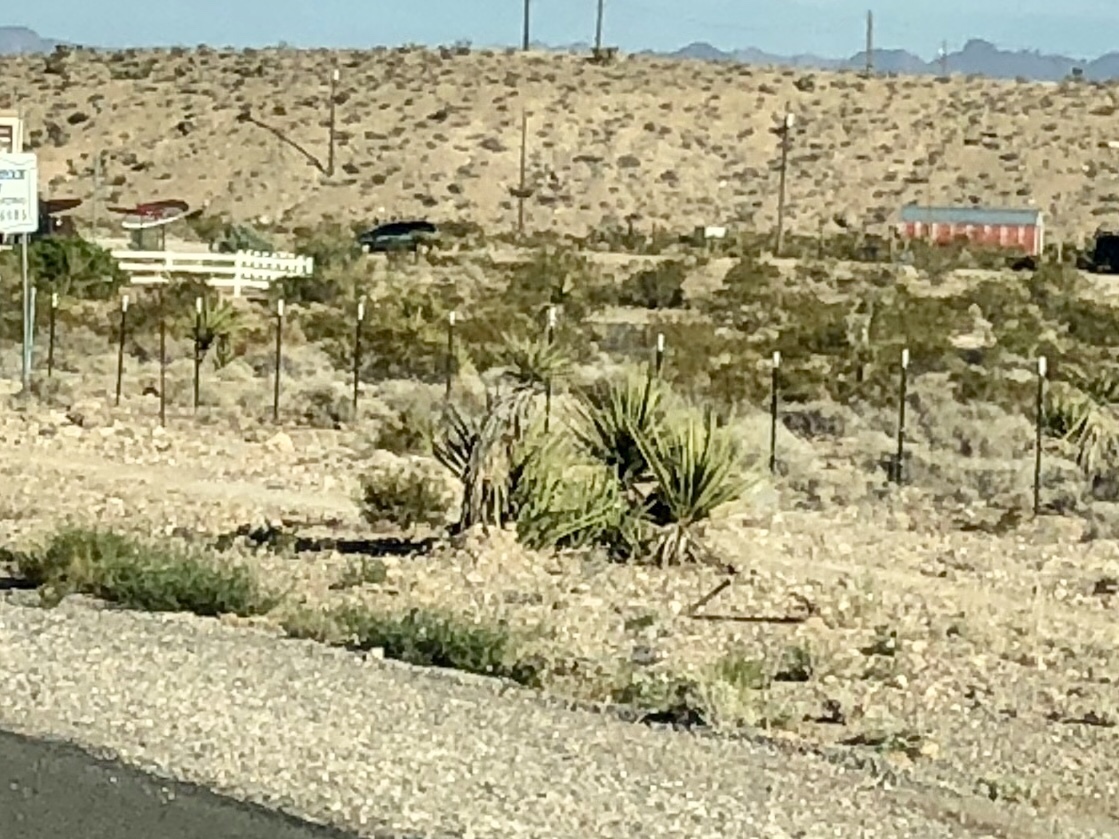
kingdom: Plantae
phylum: Tracheophyta
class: Liliopsida
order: Asparagales
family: Asparagaceae
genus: Yucca
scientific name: Yucca schidigera
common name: Mojave yucca
